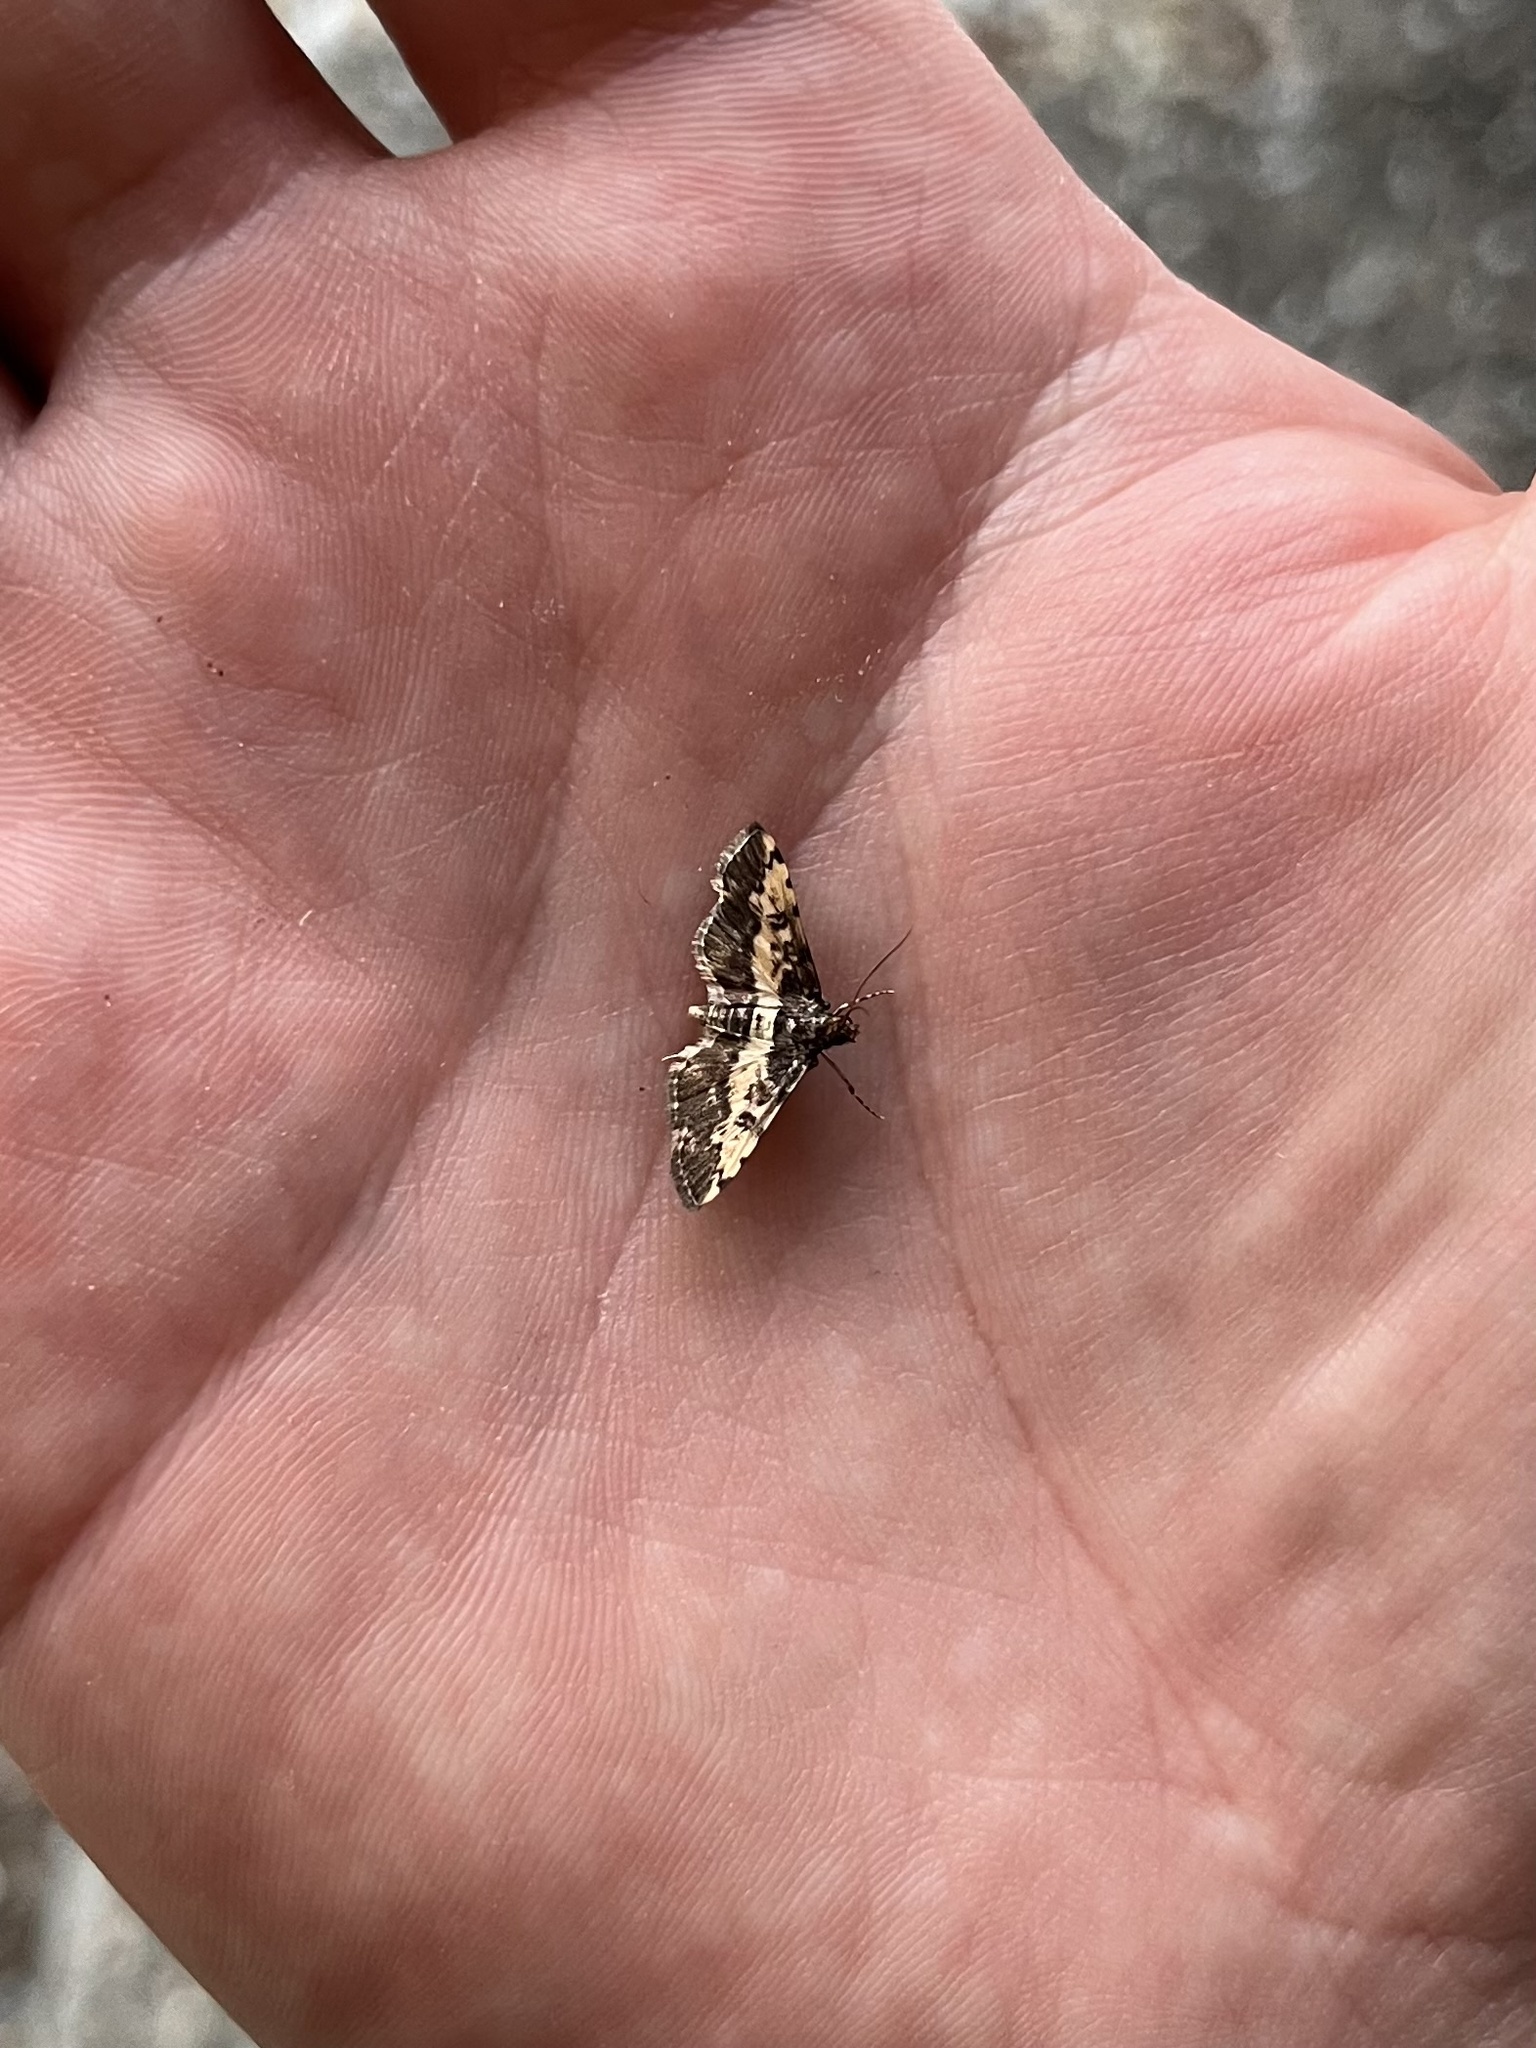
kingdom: Animalia
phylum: Arthropoda
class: Insecta
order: Lepidoptera
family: Crambidae
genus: Nacoleia
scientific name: Nacoleia amphicedalis
